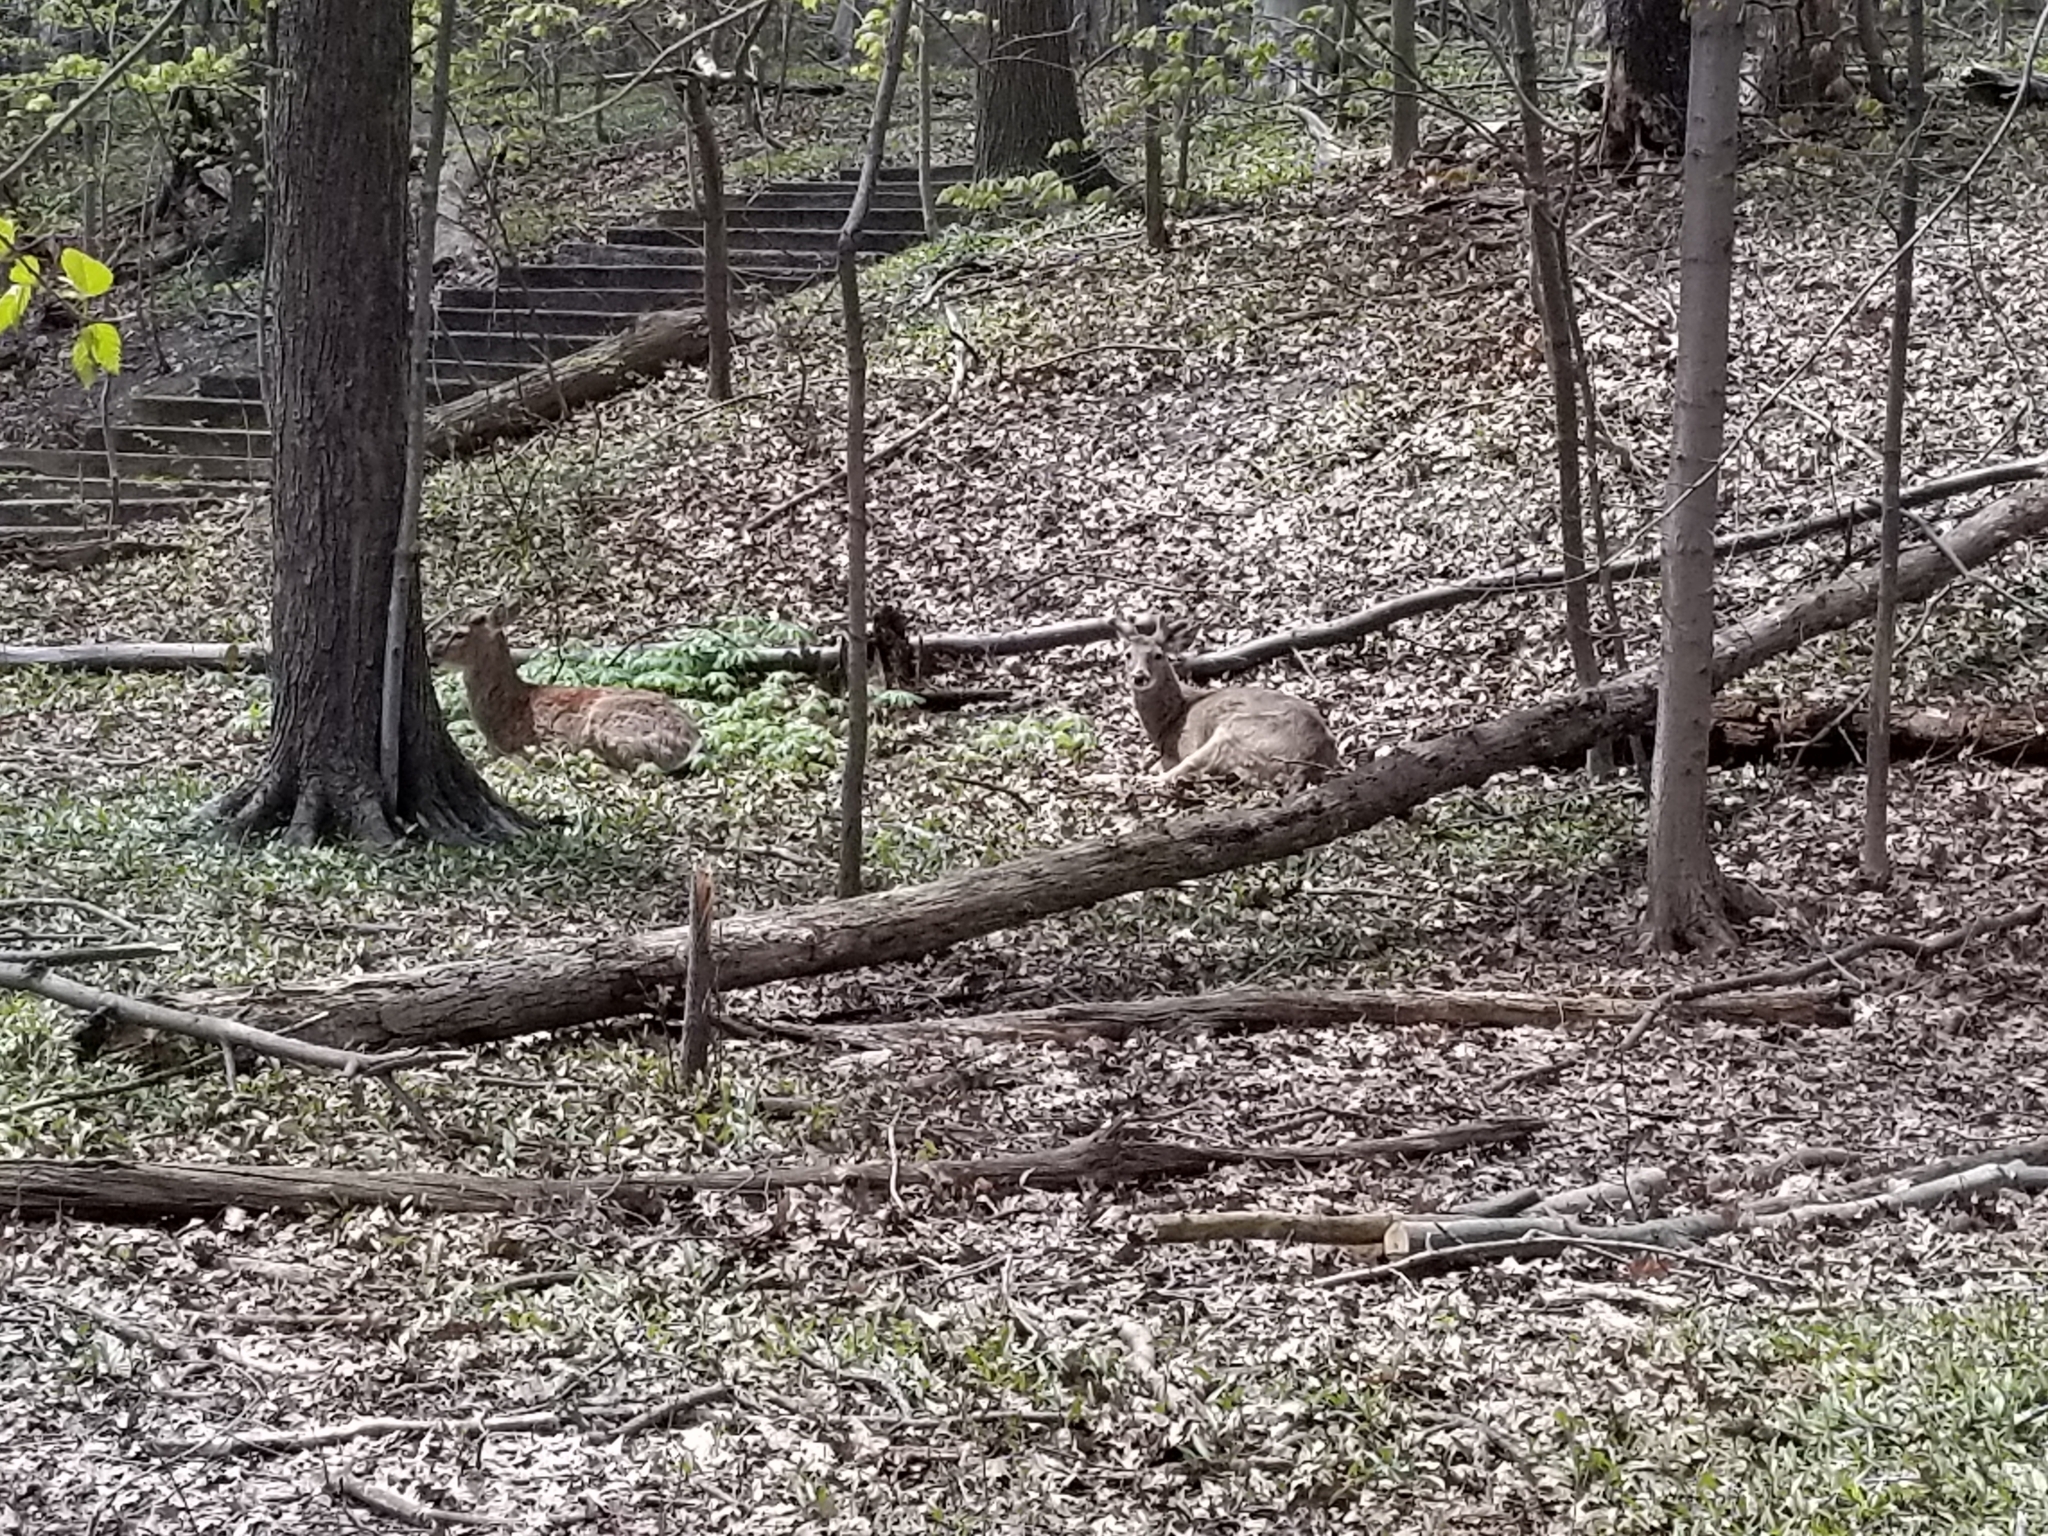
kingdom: Animalia
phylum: Chordata
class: Mammalia
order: Artiodactyla
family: Cervidae
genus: Odocoileus
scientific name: Odocoileus virginianus
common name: White-tailed deer
